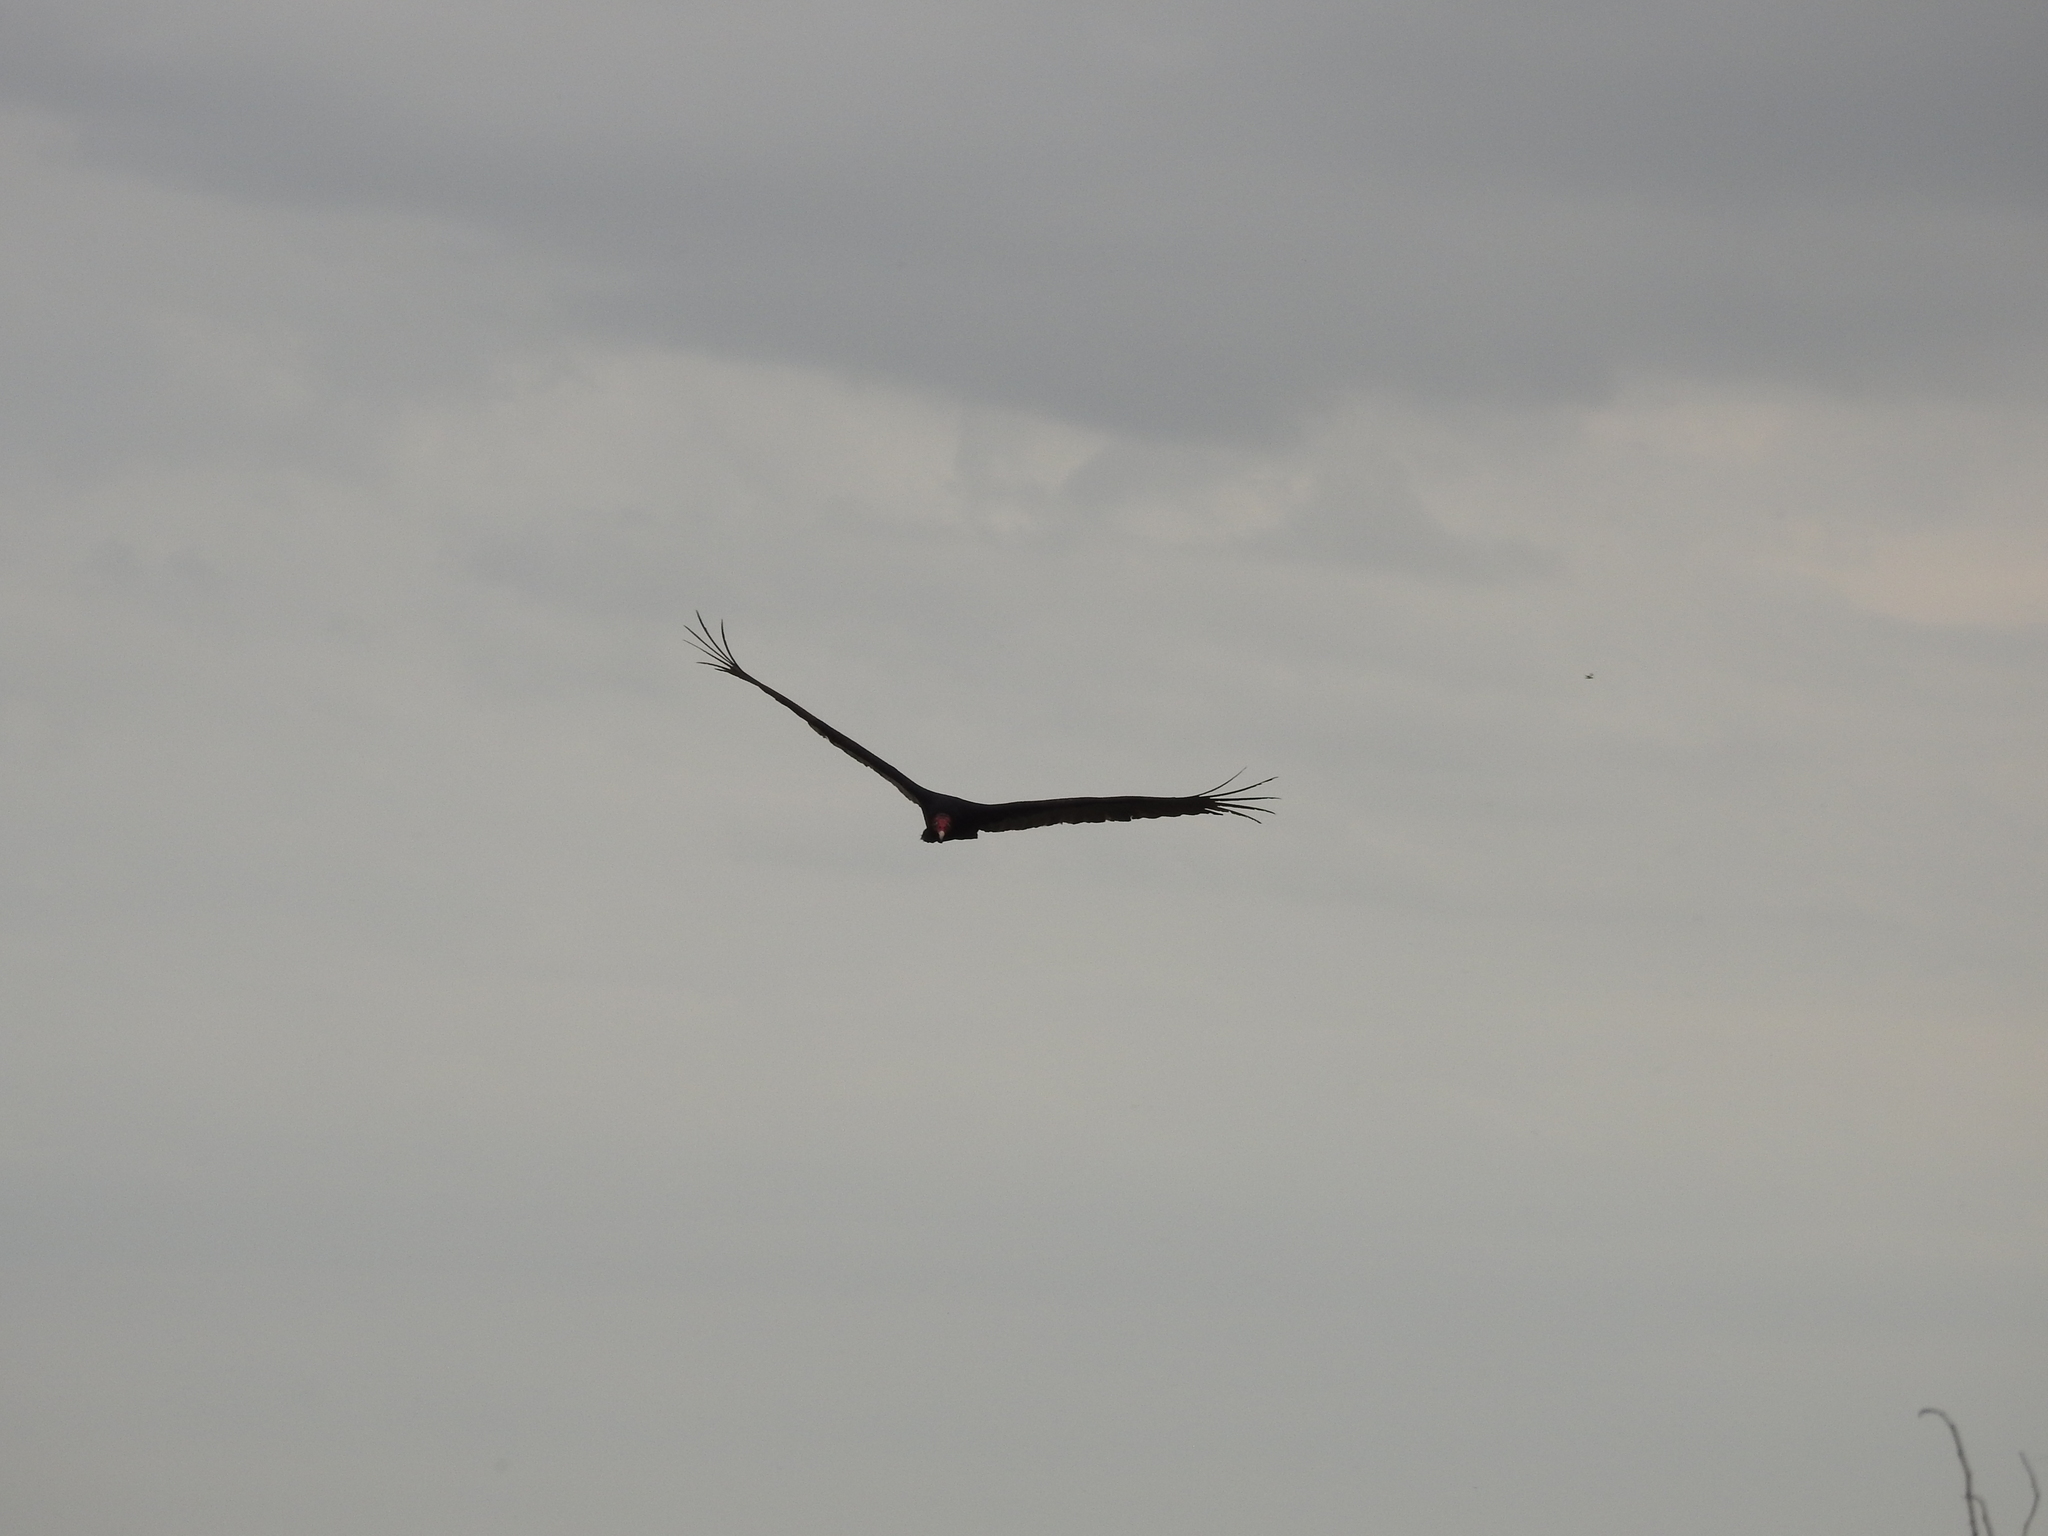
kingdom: Animalia
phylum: Chordata
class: Aves
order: Accipitriformes
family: Cathartidae
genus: Cathartes
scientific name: Cathartes aura
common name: Turkey vulture
